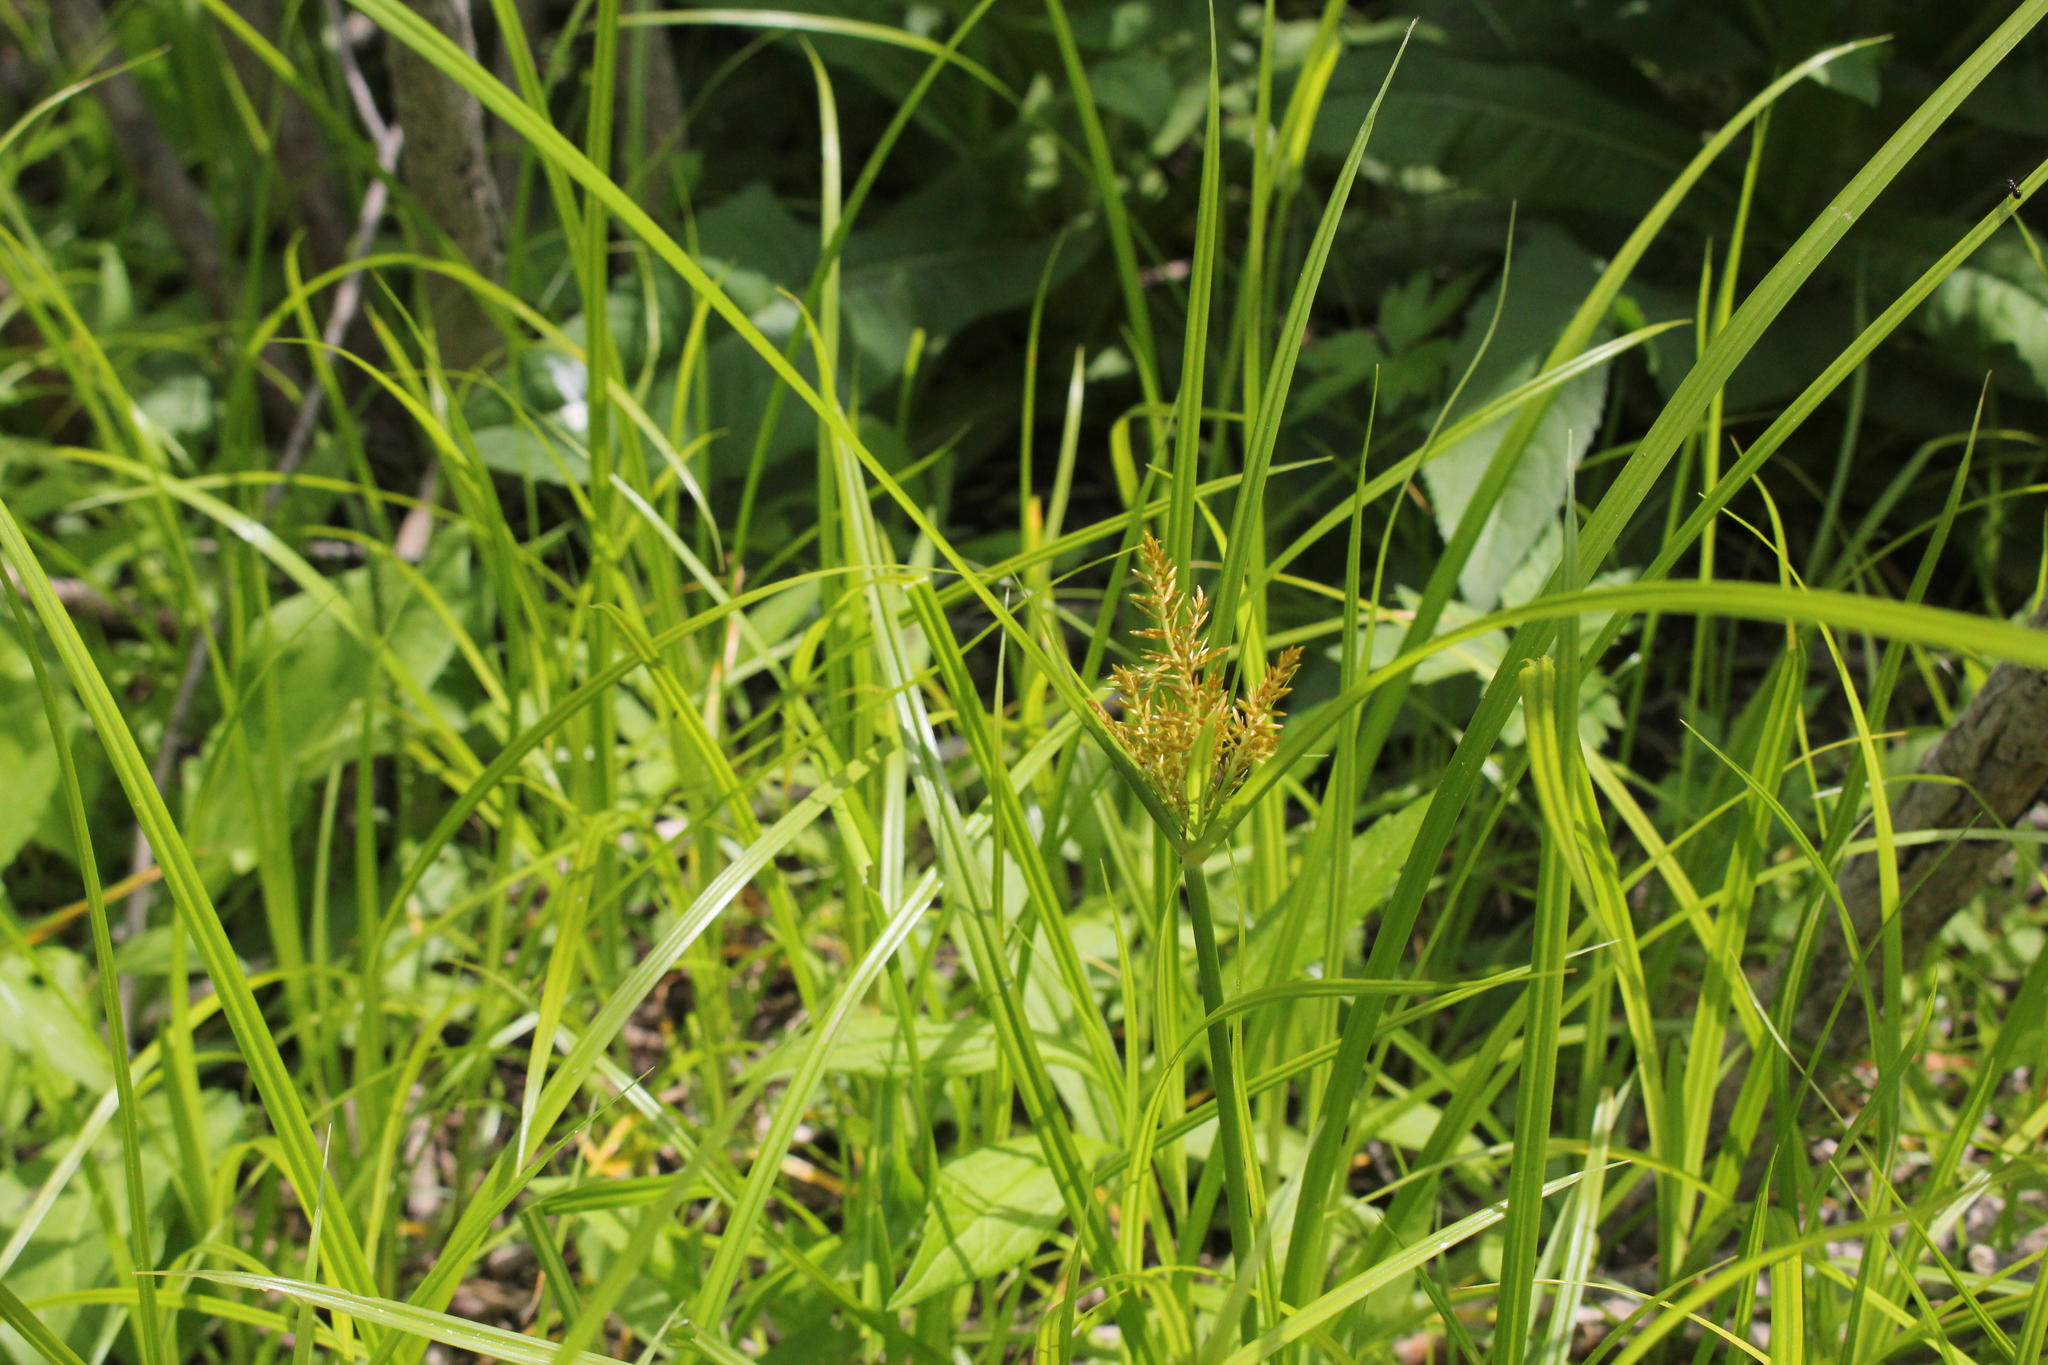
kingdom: Plantae
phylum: Tracheophyta
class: Liliopsida
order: Poales
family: Cyperaceae
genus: Cyperus
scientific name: Cyperus esculentus
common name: Yellow nutsedge
